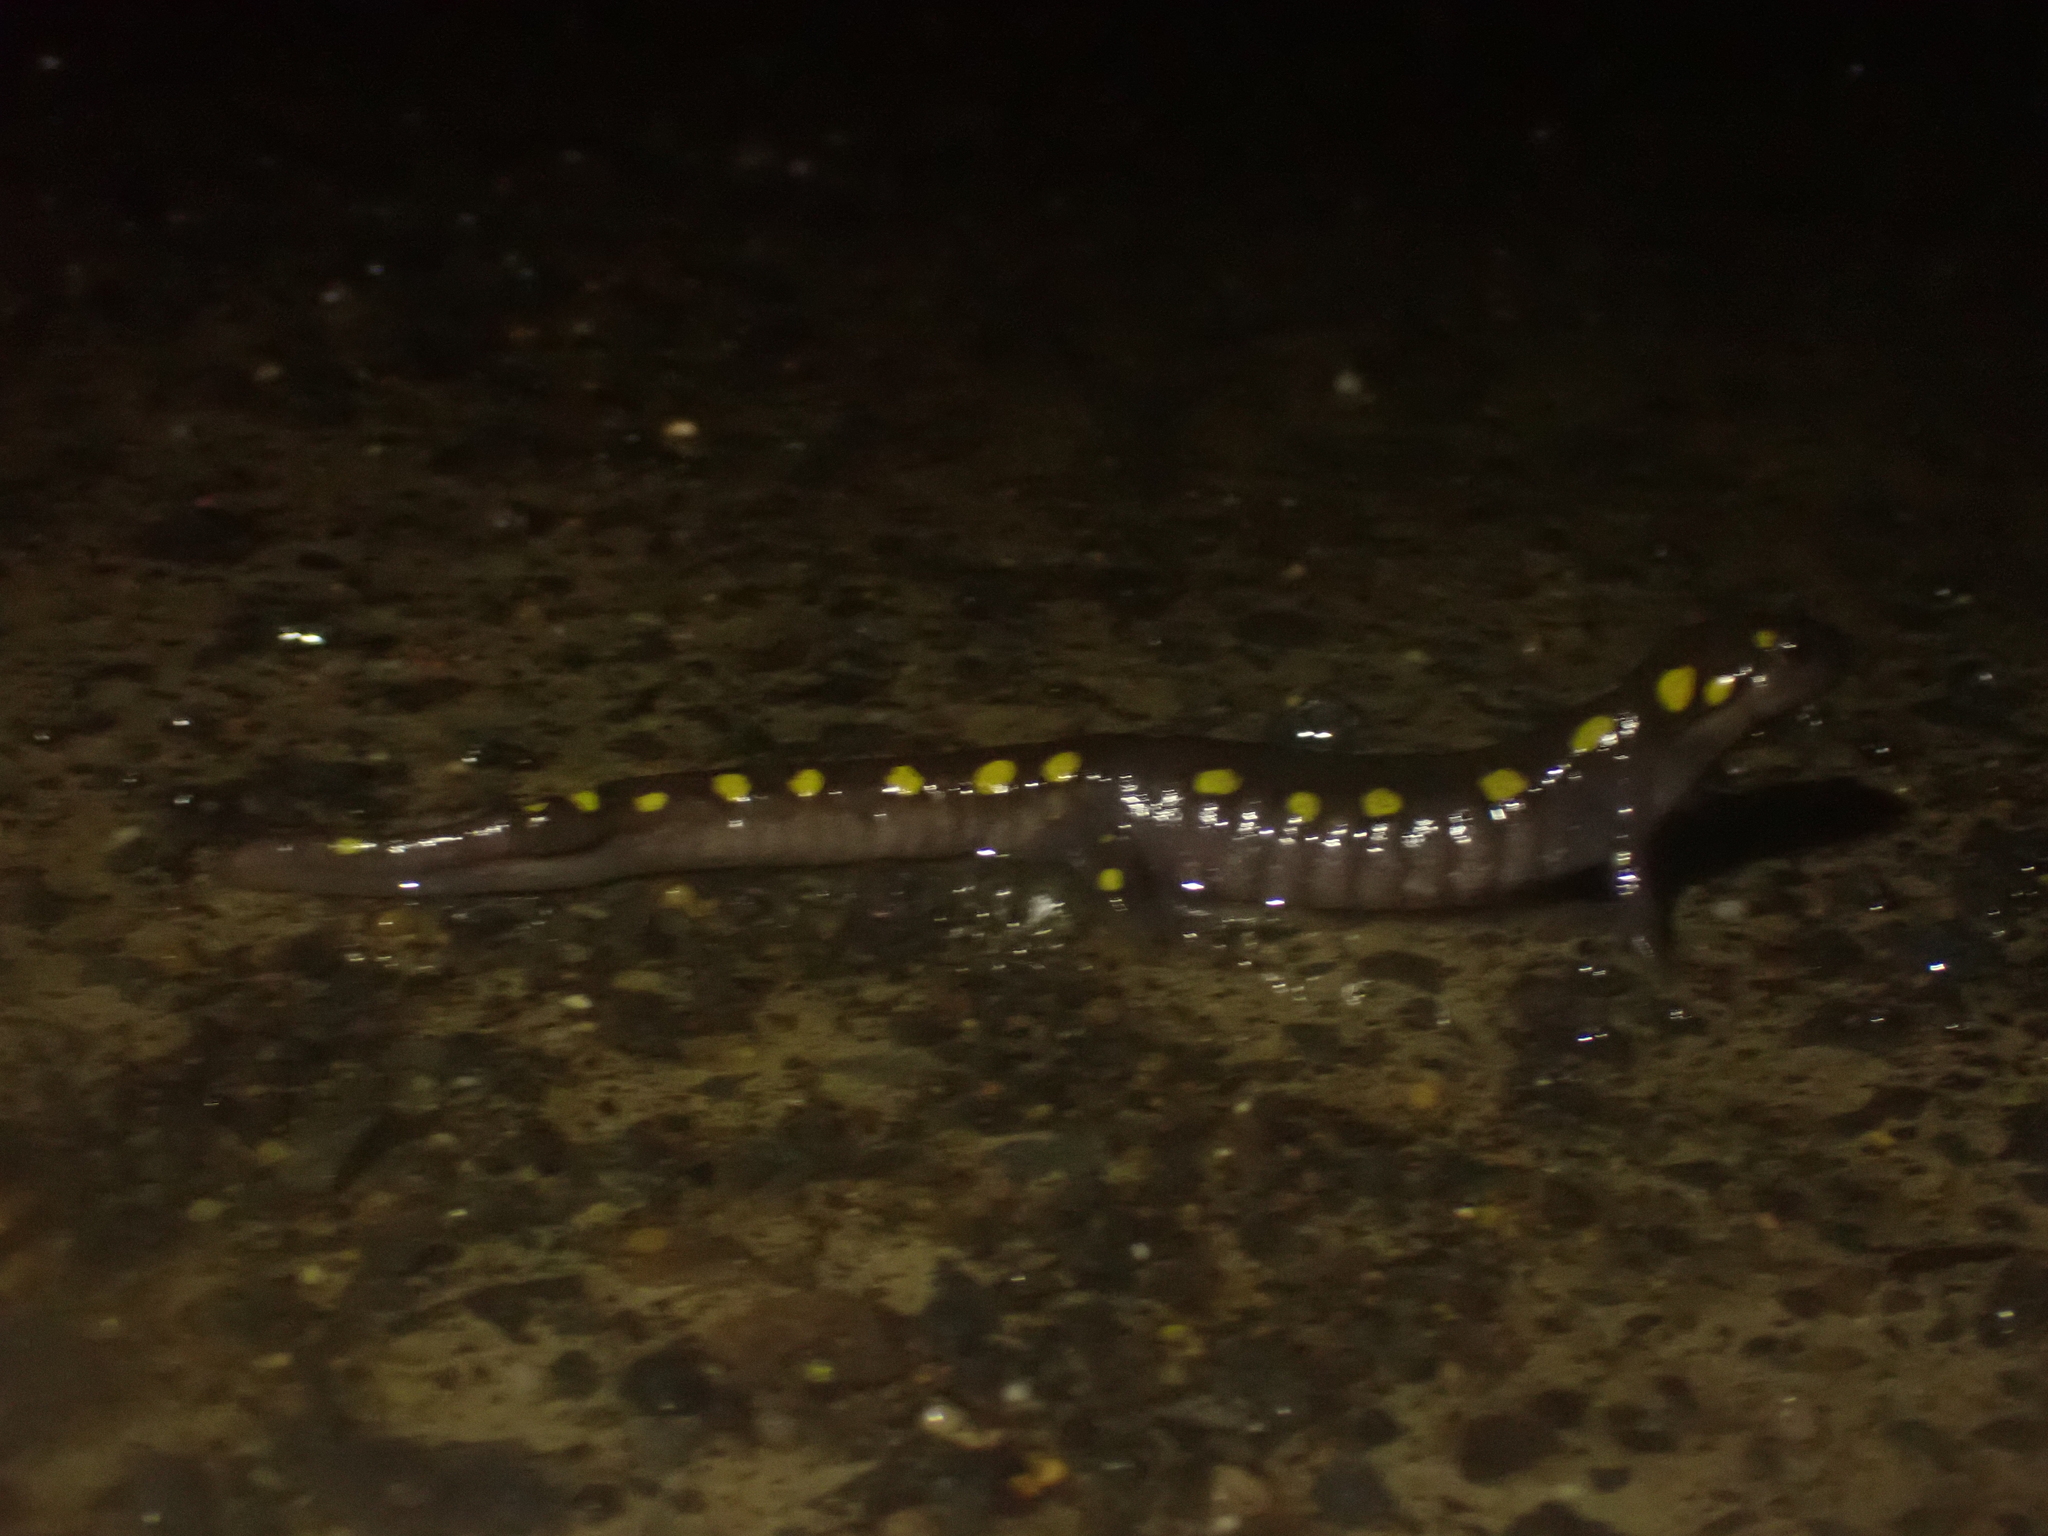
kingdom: Animalia
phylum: Chordata
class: Amphibia
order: Caudata
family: Ambystomatidae
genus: Ambystoma
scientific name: Ambystoma maculatum
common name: Spotted salamander
